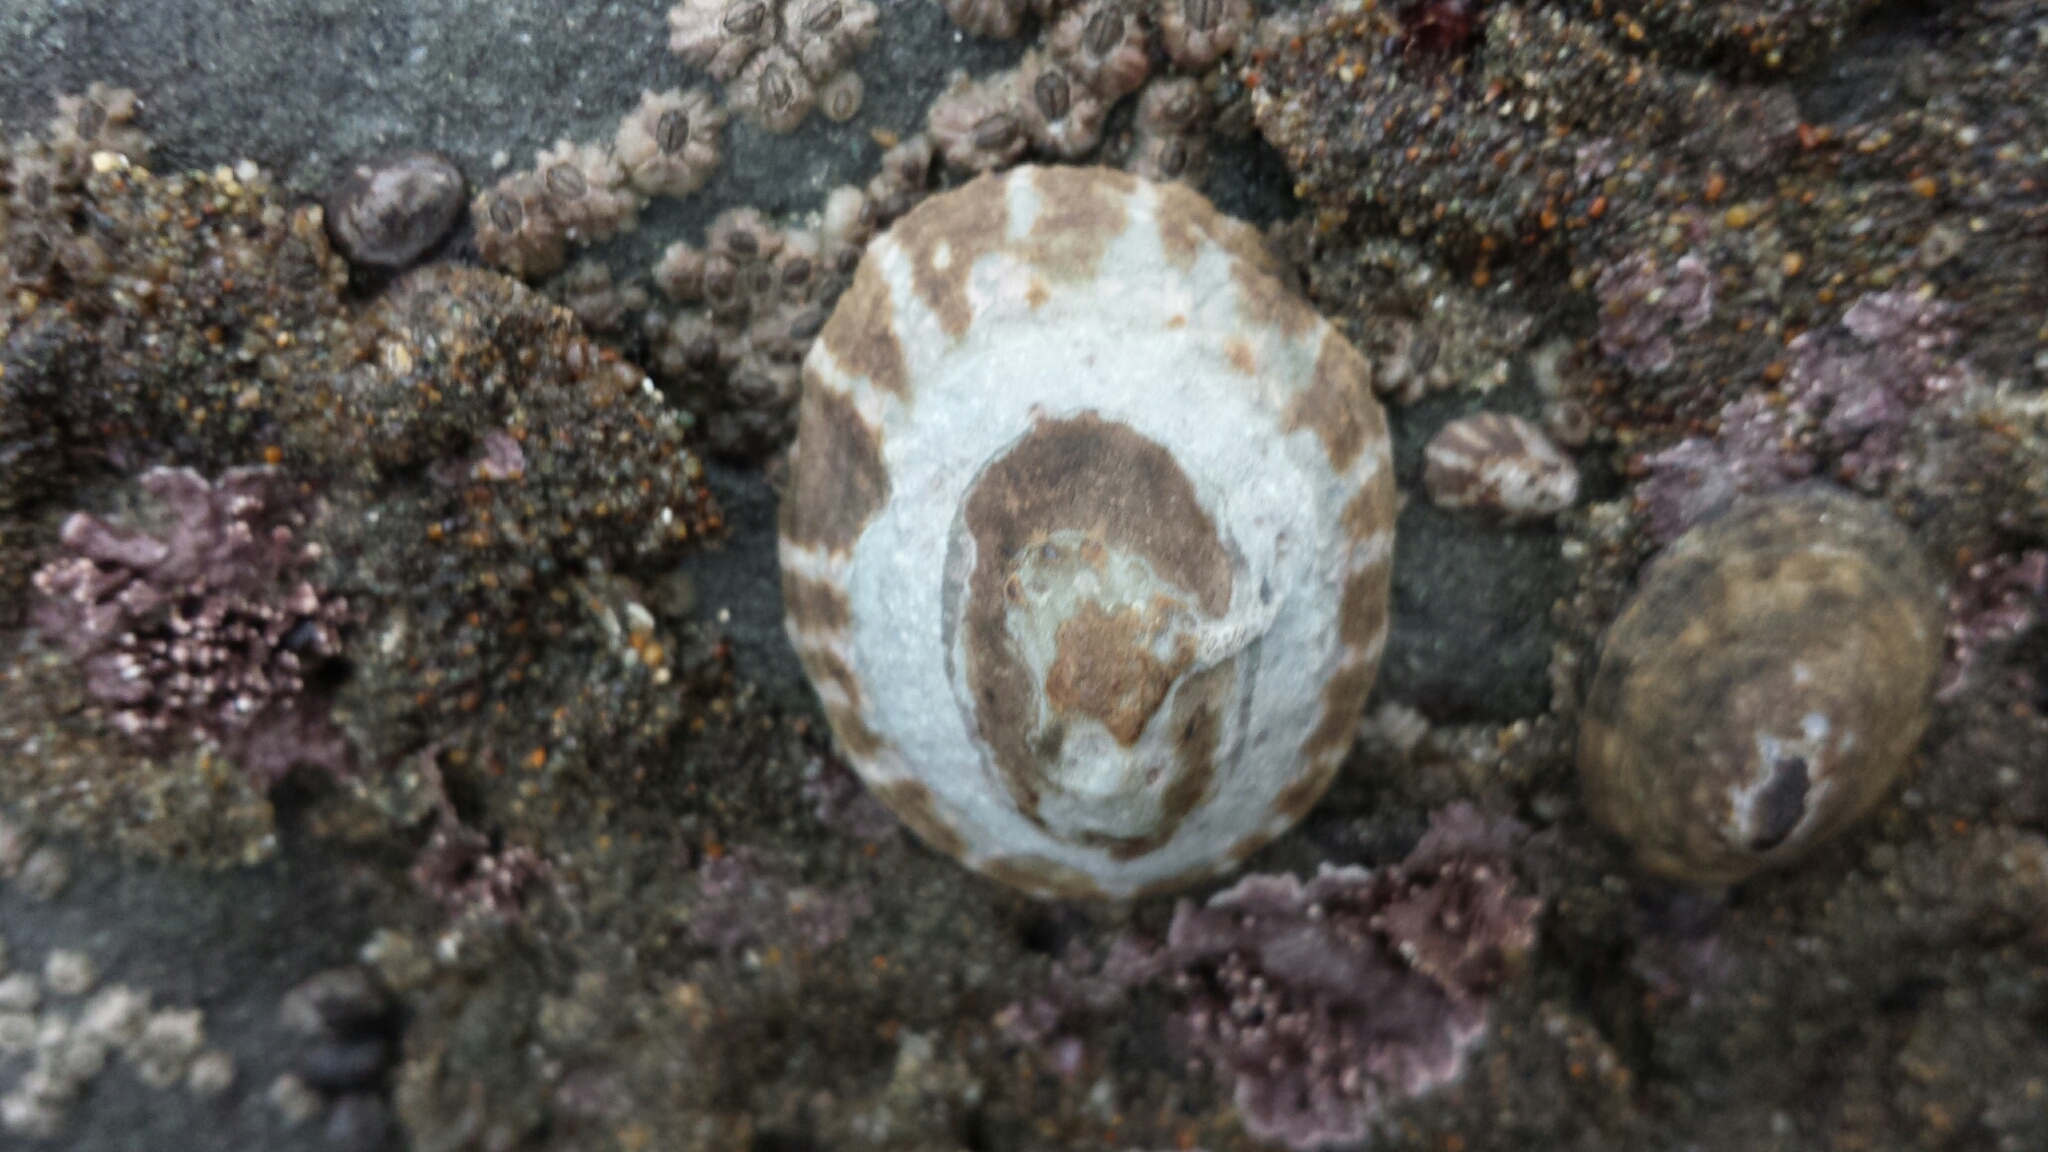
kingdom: Animalia
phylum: Mollusca
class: Gastropoda
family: Lottiidae
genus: Lottia
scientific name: Lottia pelta
